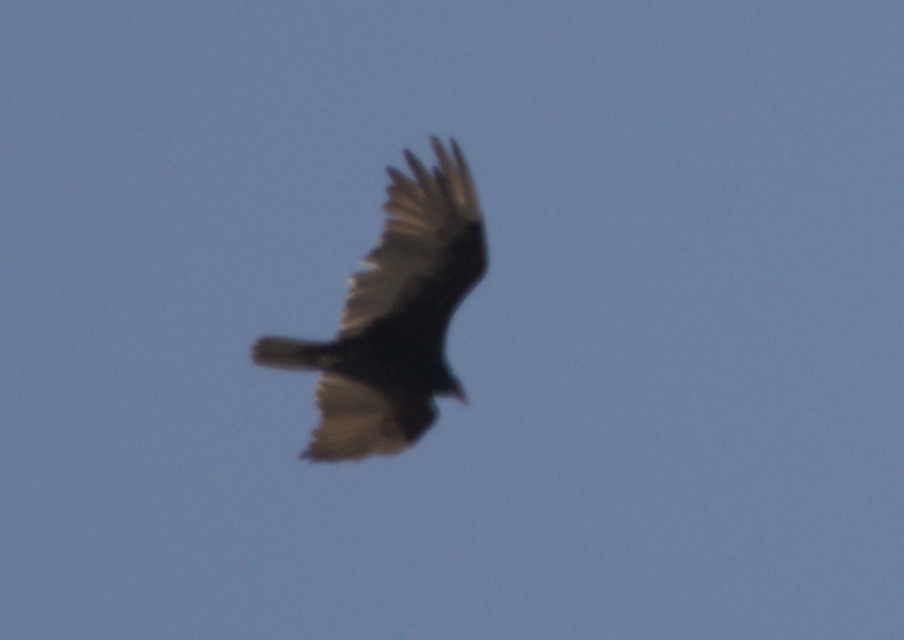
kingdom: Animalia
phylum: Chordata
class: Aves
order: Accipitriformes
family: Cathartidae
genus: Cathartes
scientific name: Cathartes aura
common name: Turkey vulture
